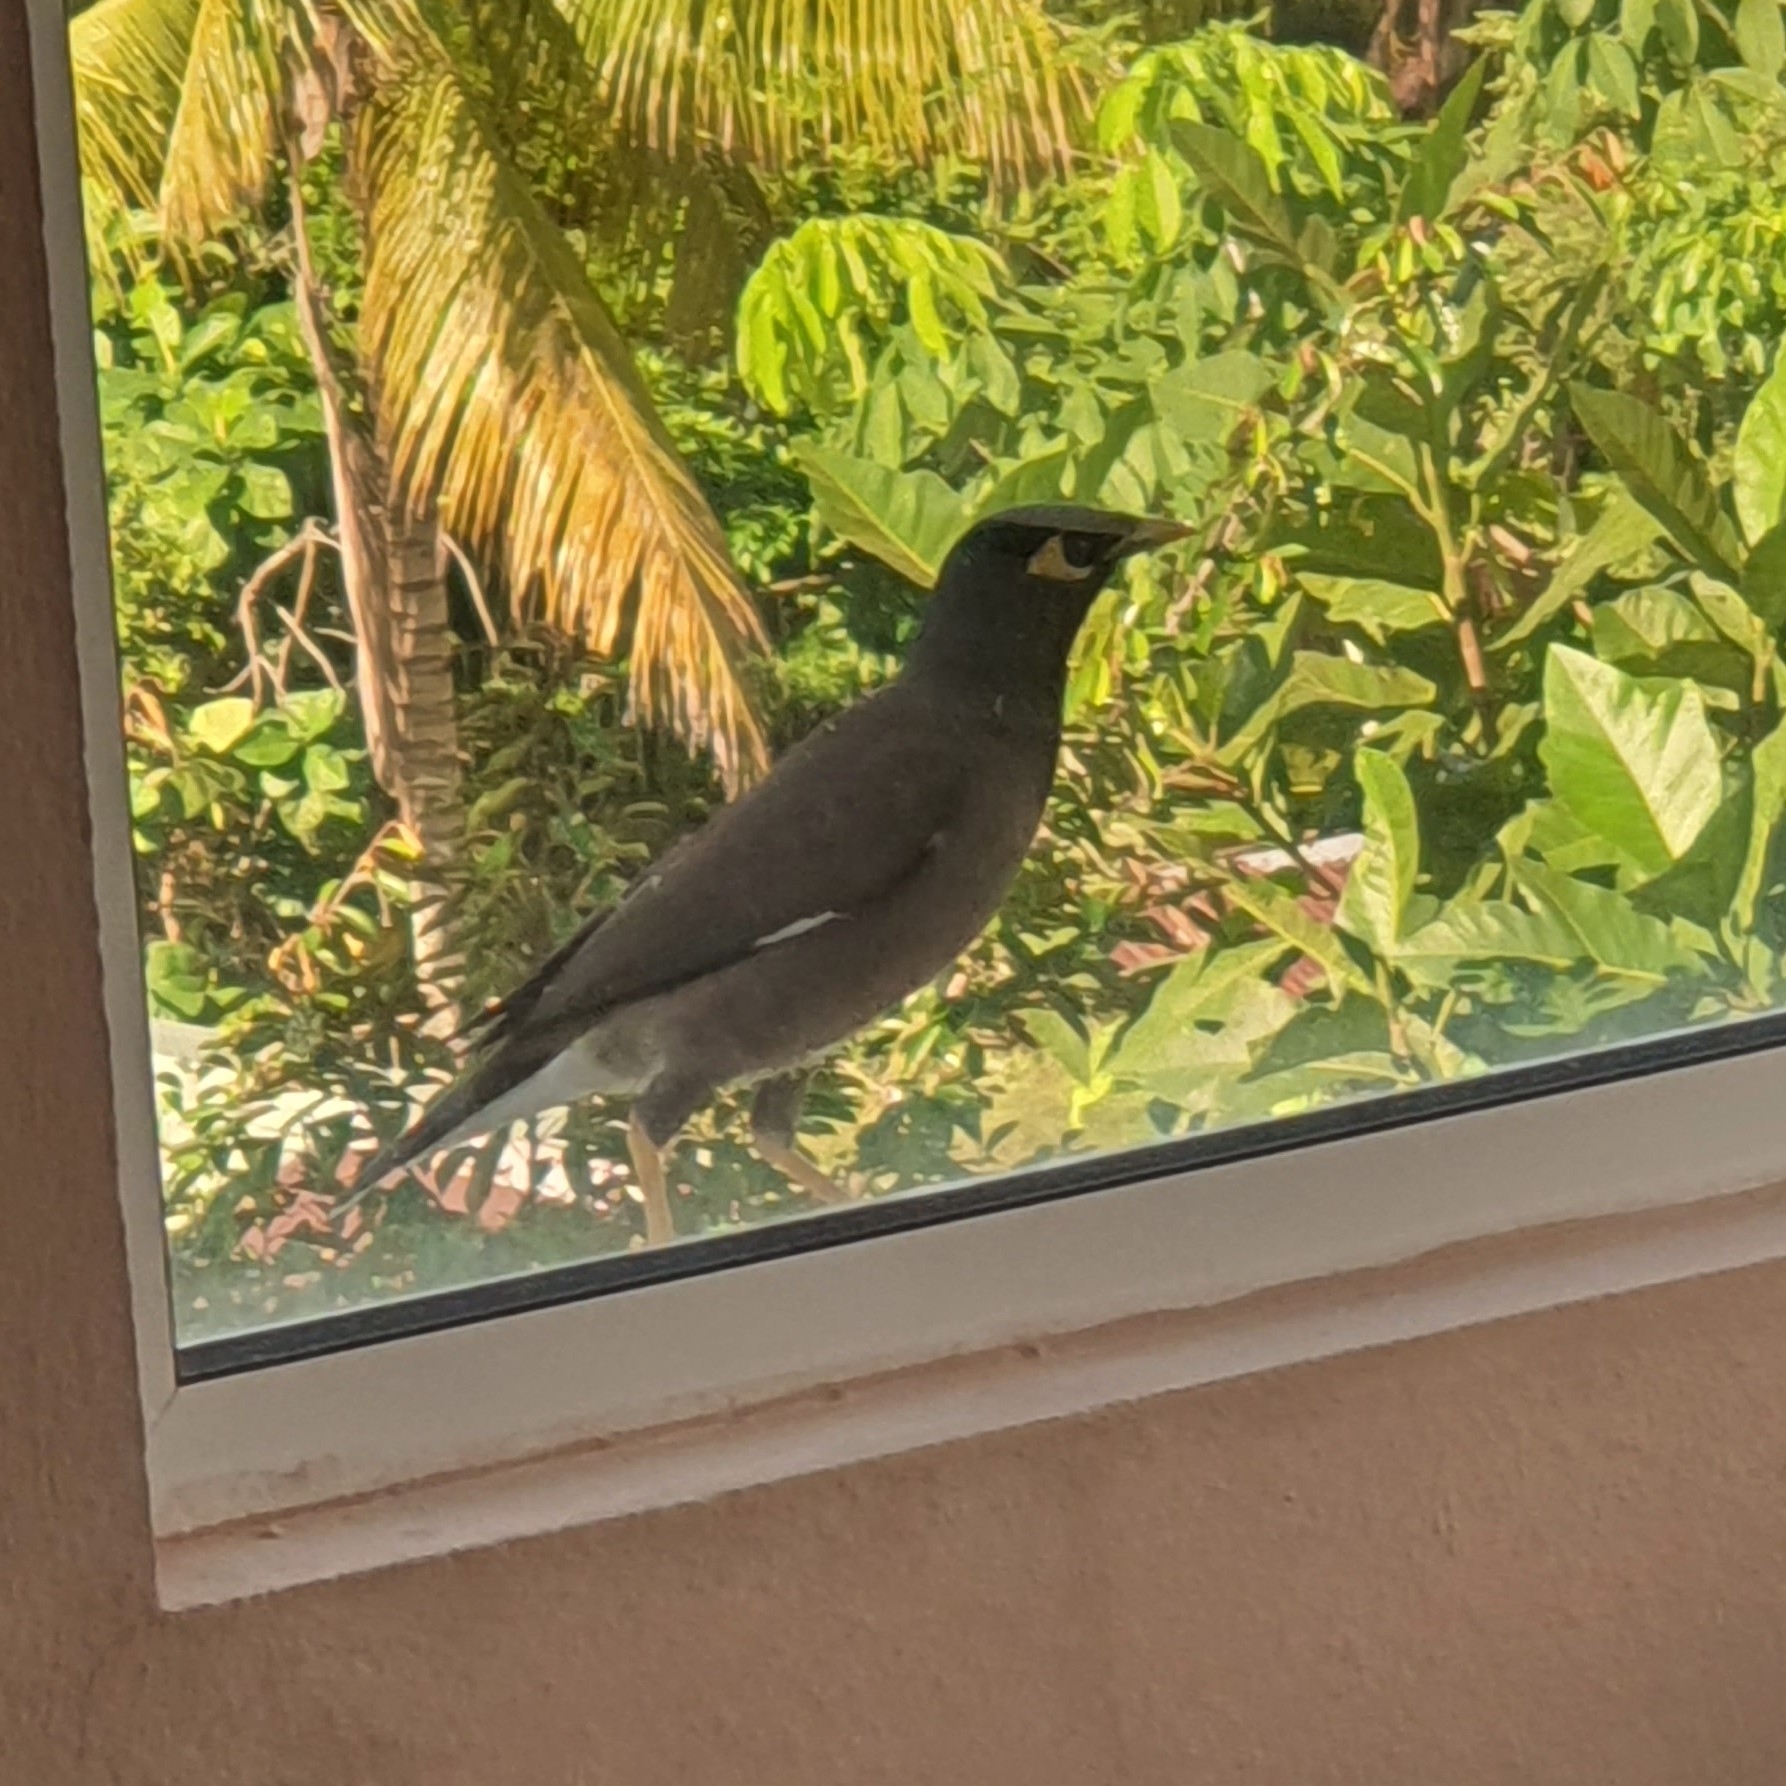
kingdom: Animalia
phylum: Chordata
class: Aves
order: Passeriformes
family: Sturnidae
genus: Acridotheres
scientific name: Acridotheres tristis
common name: Common myna
